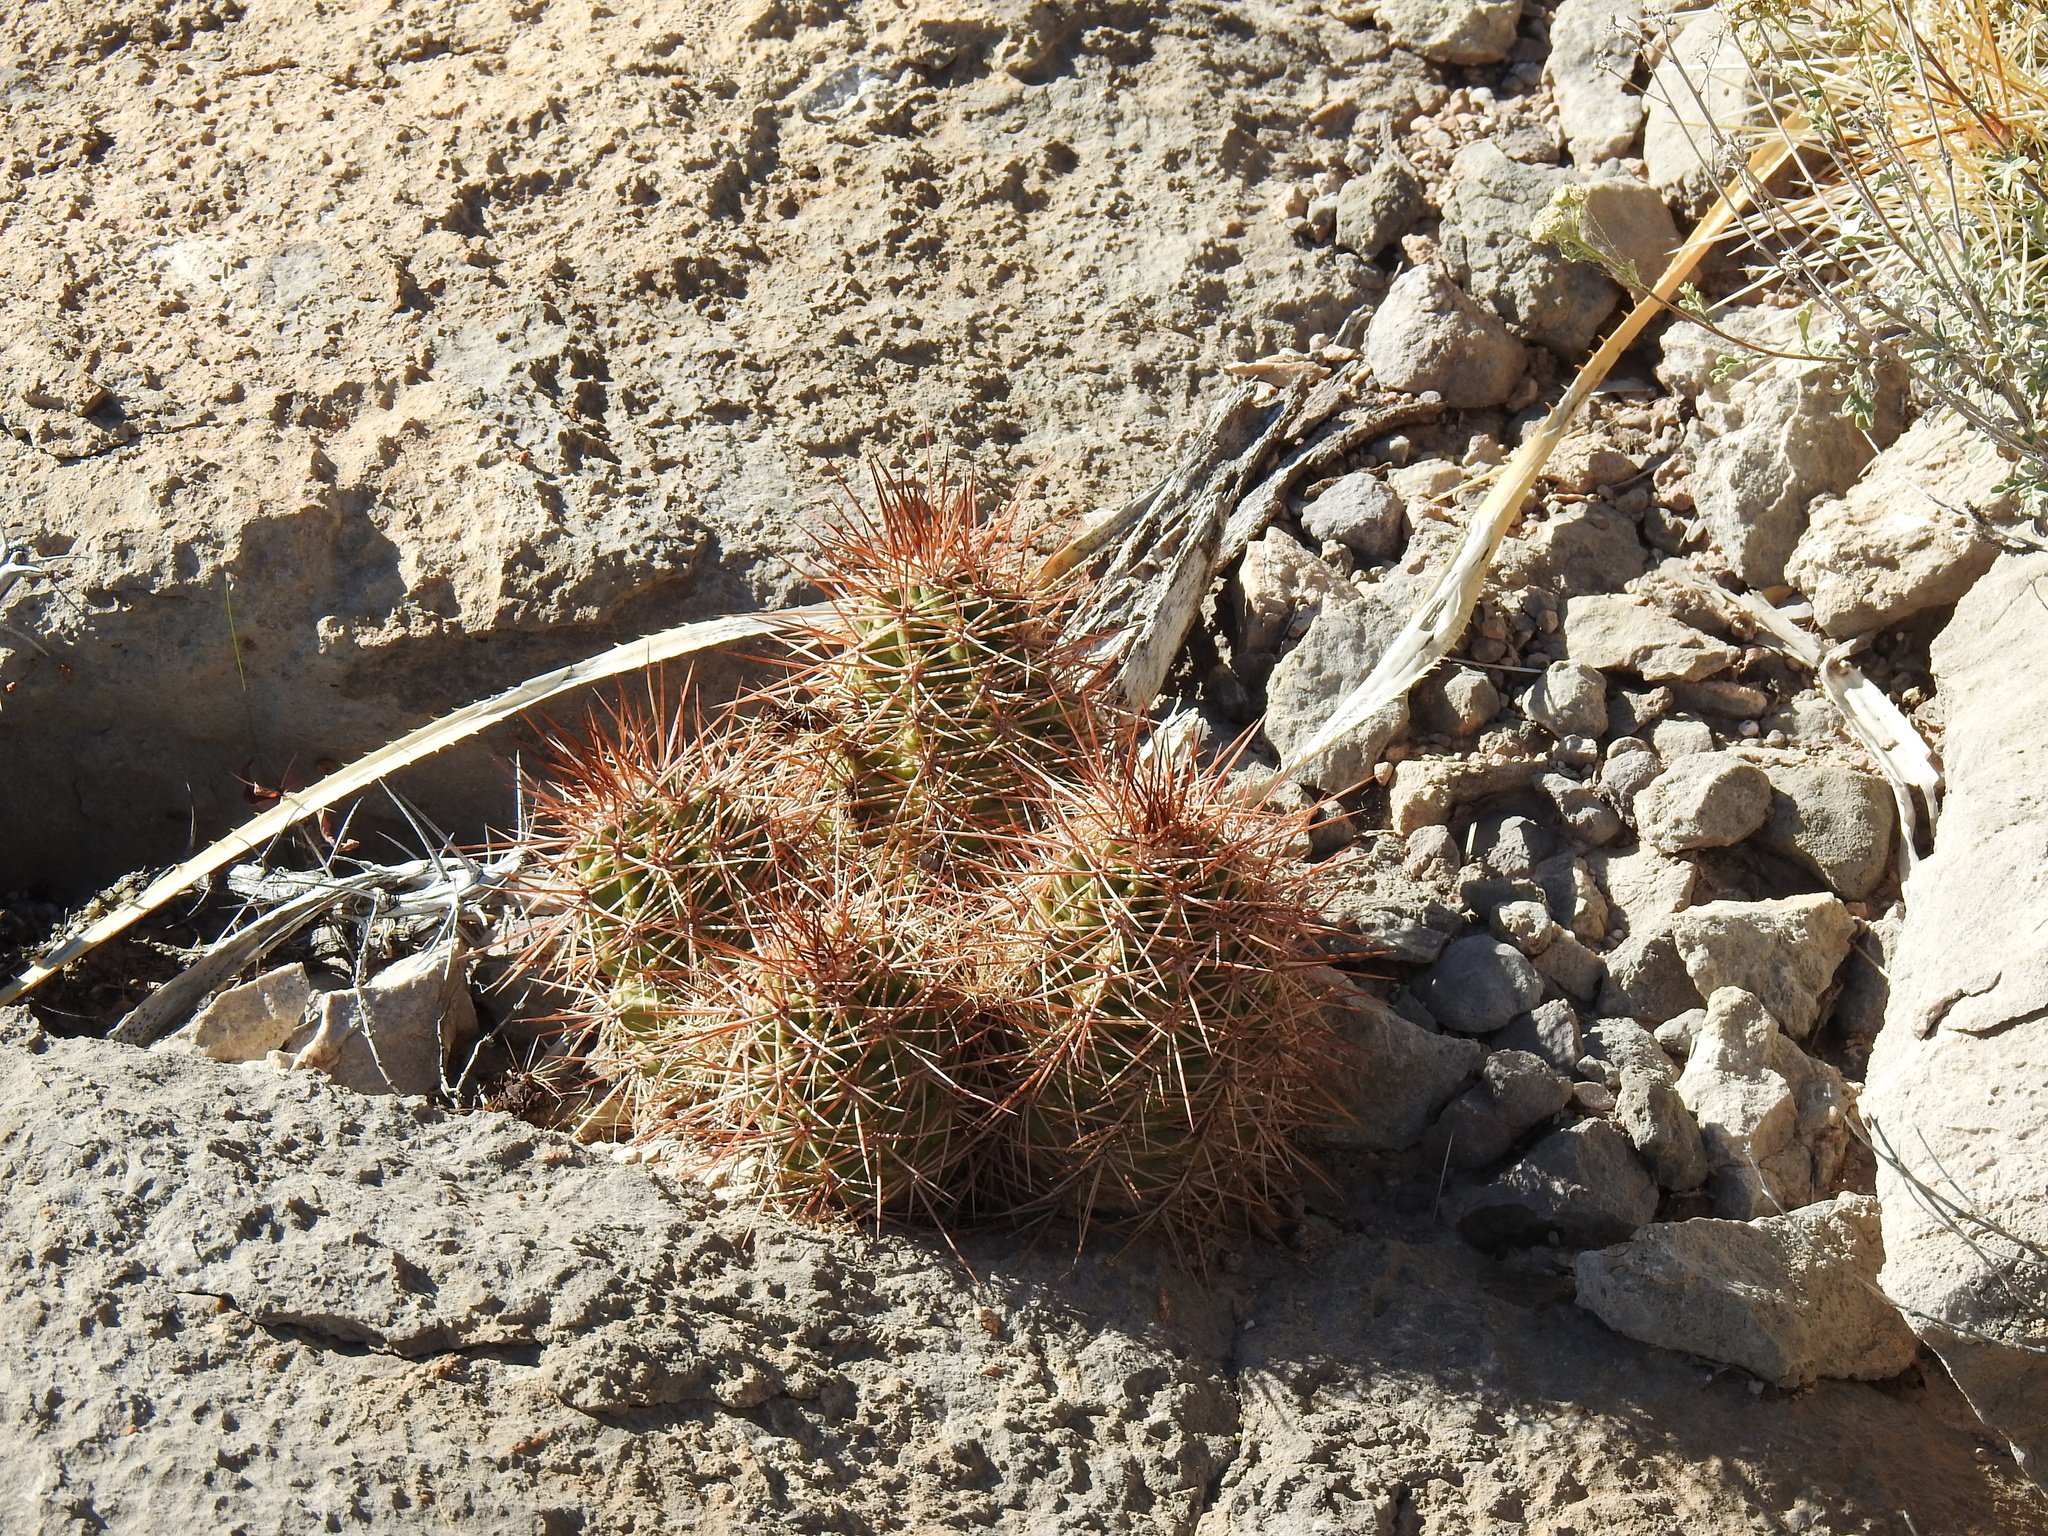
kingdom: Plantae
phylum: Tracheophyta
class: Magnoliopsida
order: Caryophyllales
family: Cactaceae
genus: Echinocereus
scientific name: Echinocereus coccineus
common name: Scarlet hedgehog cactus
